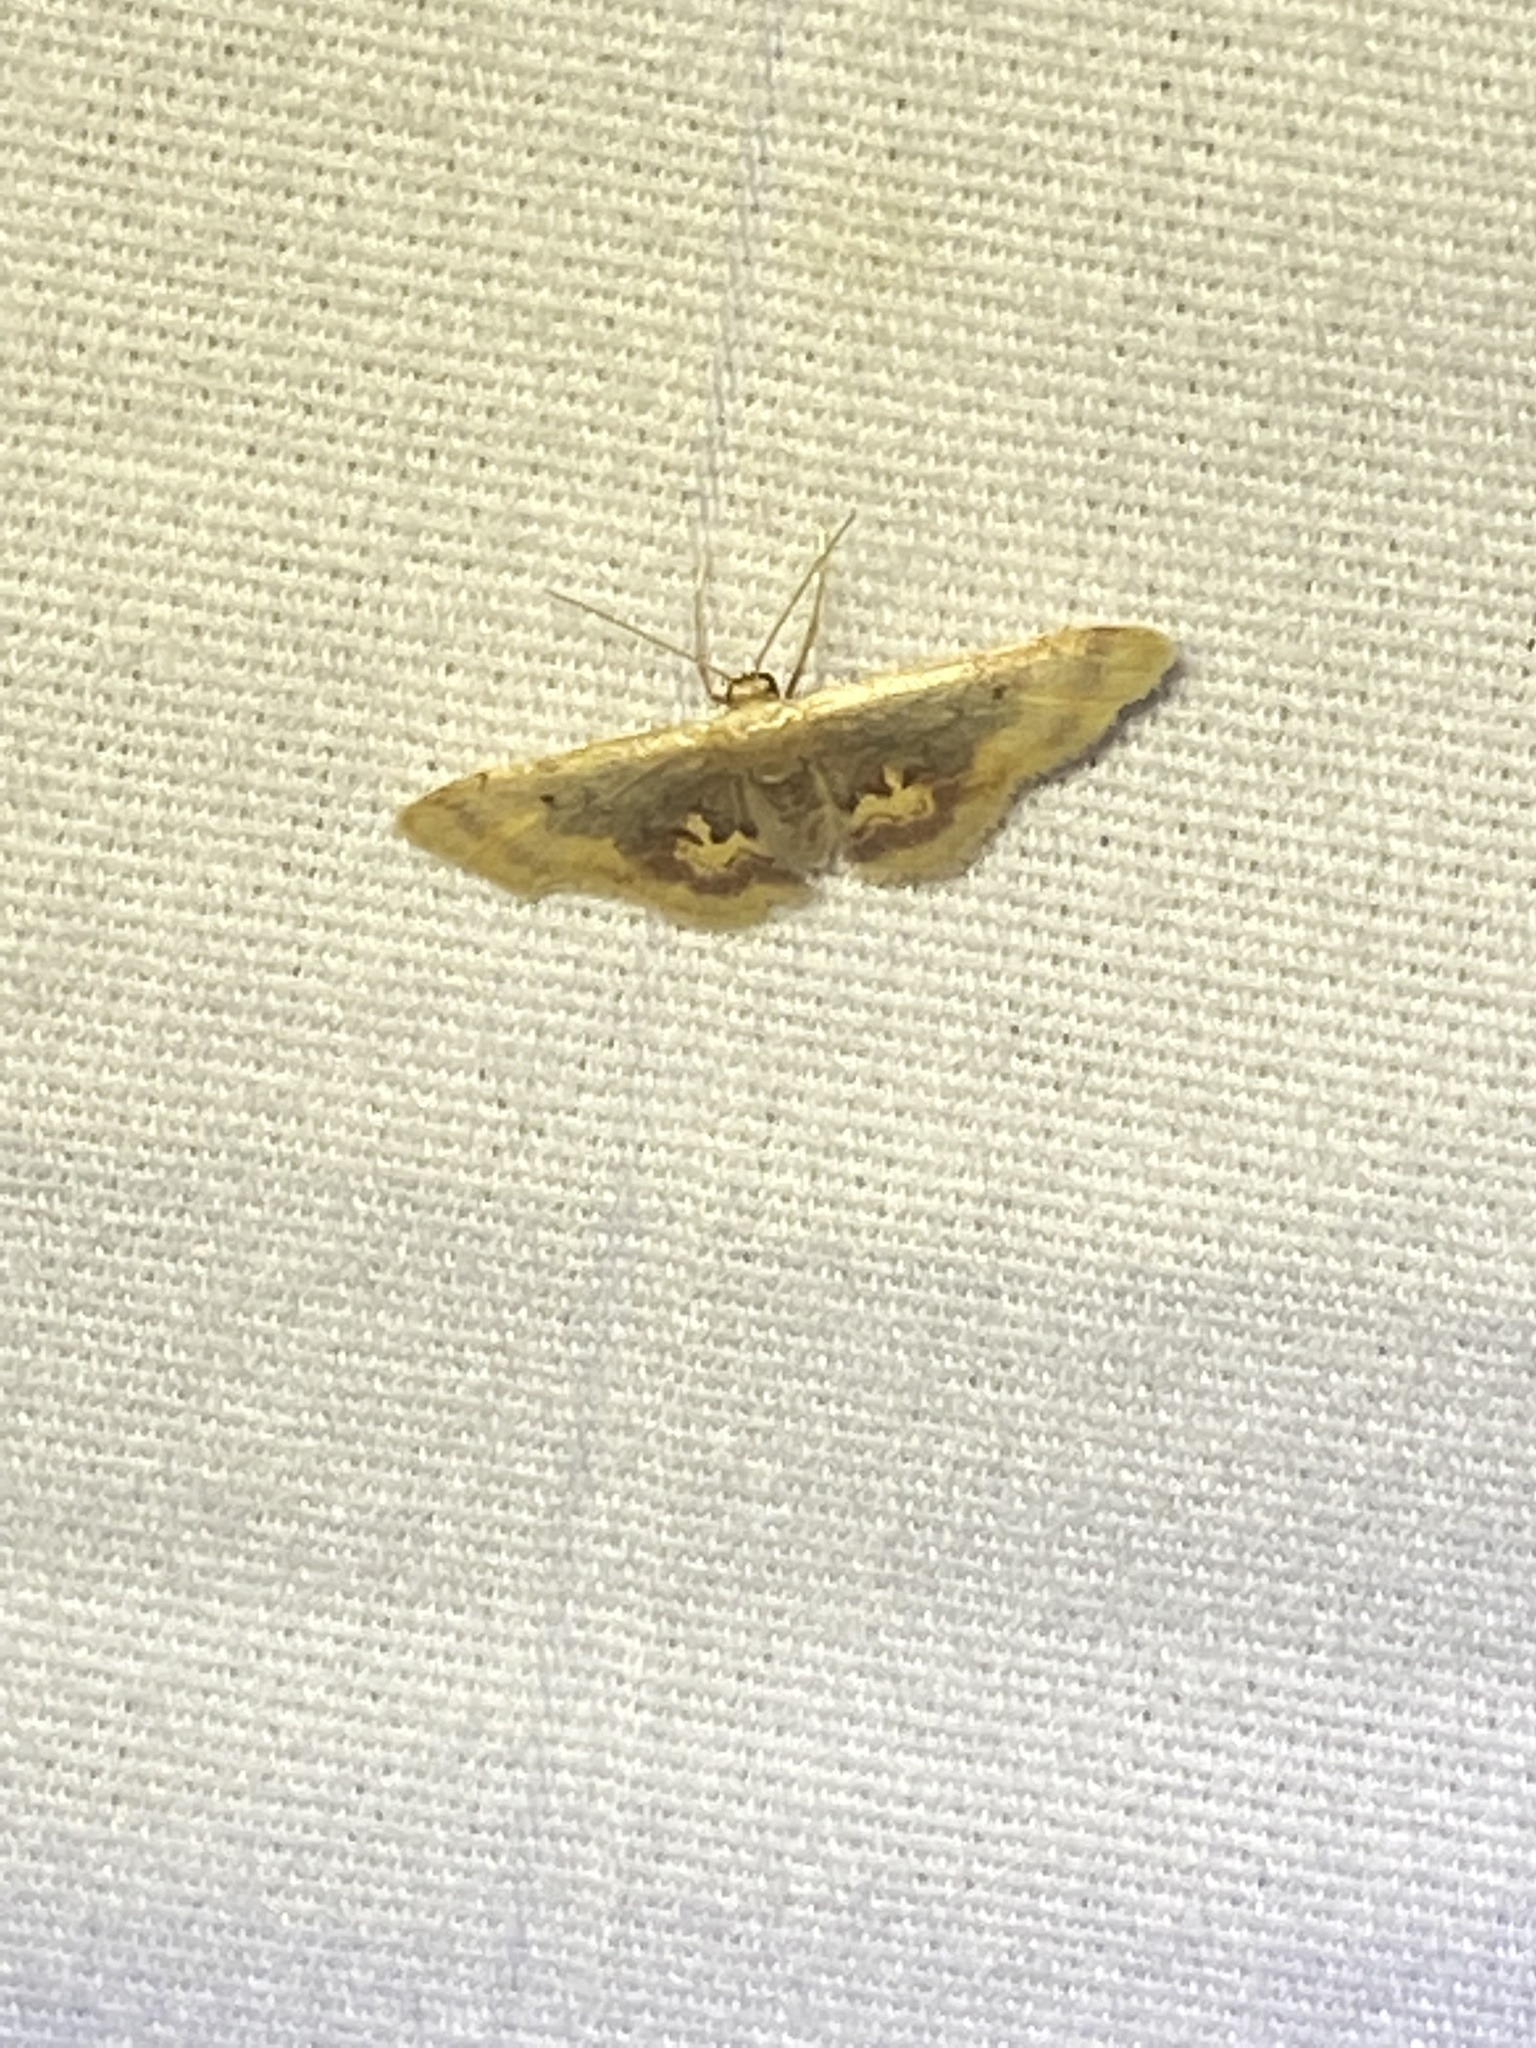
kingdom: Animalia
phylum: Arthropoda
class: Insecta
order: Lepidoptera
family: Geometridae
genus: Idaea
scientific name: Idaea scintillularia
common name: Diminutive wave
